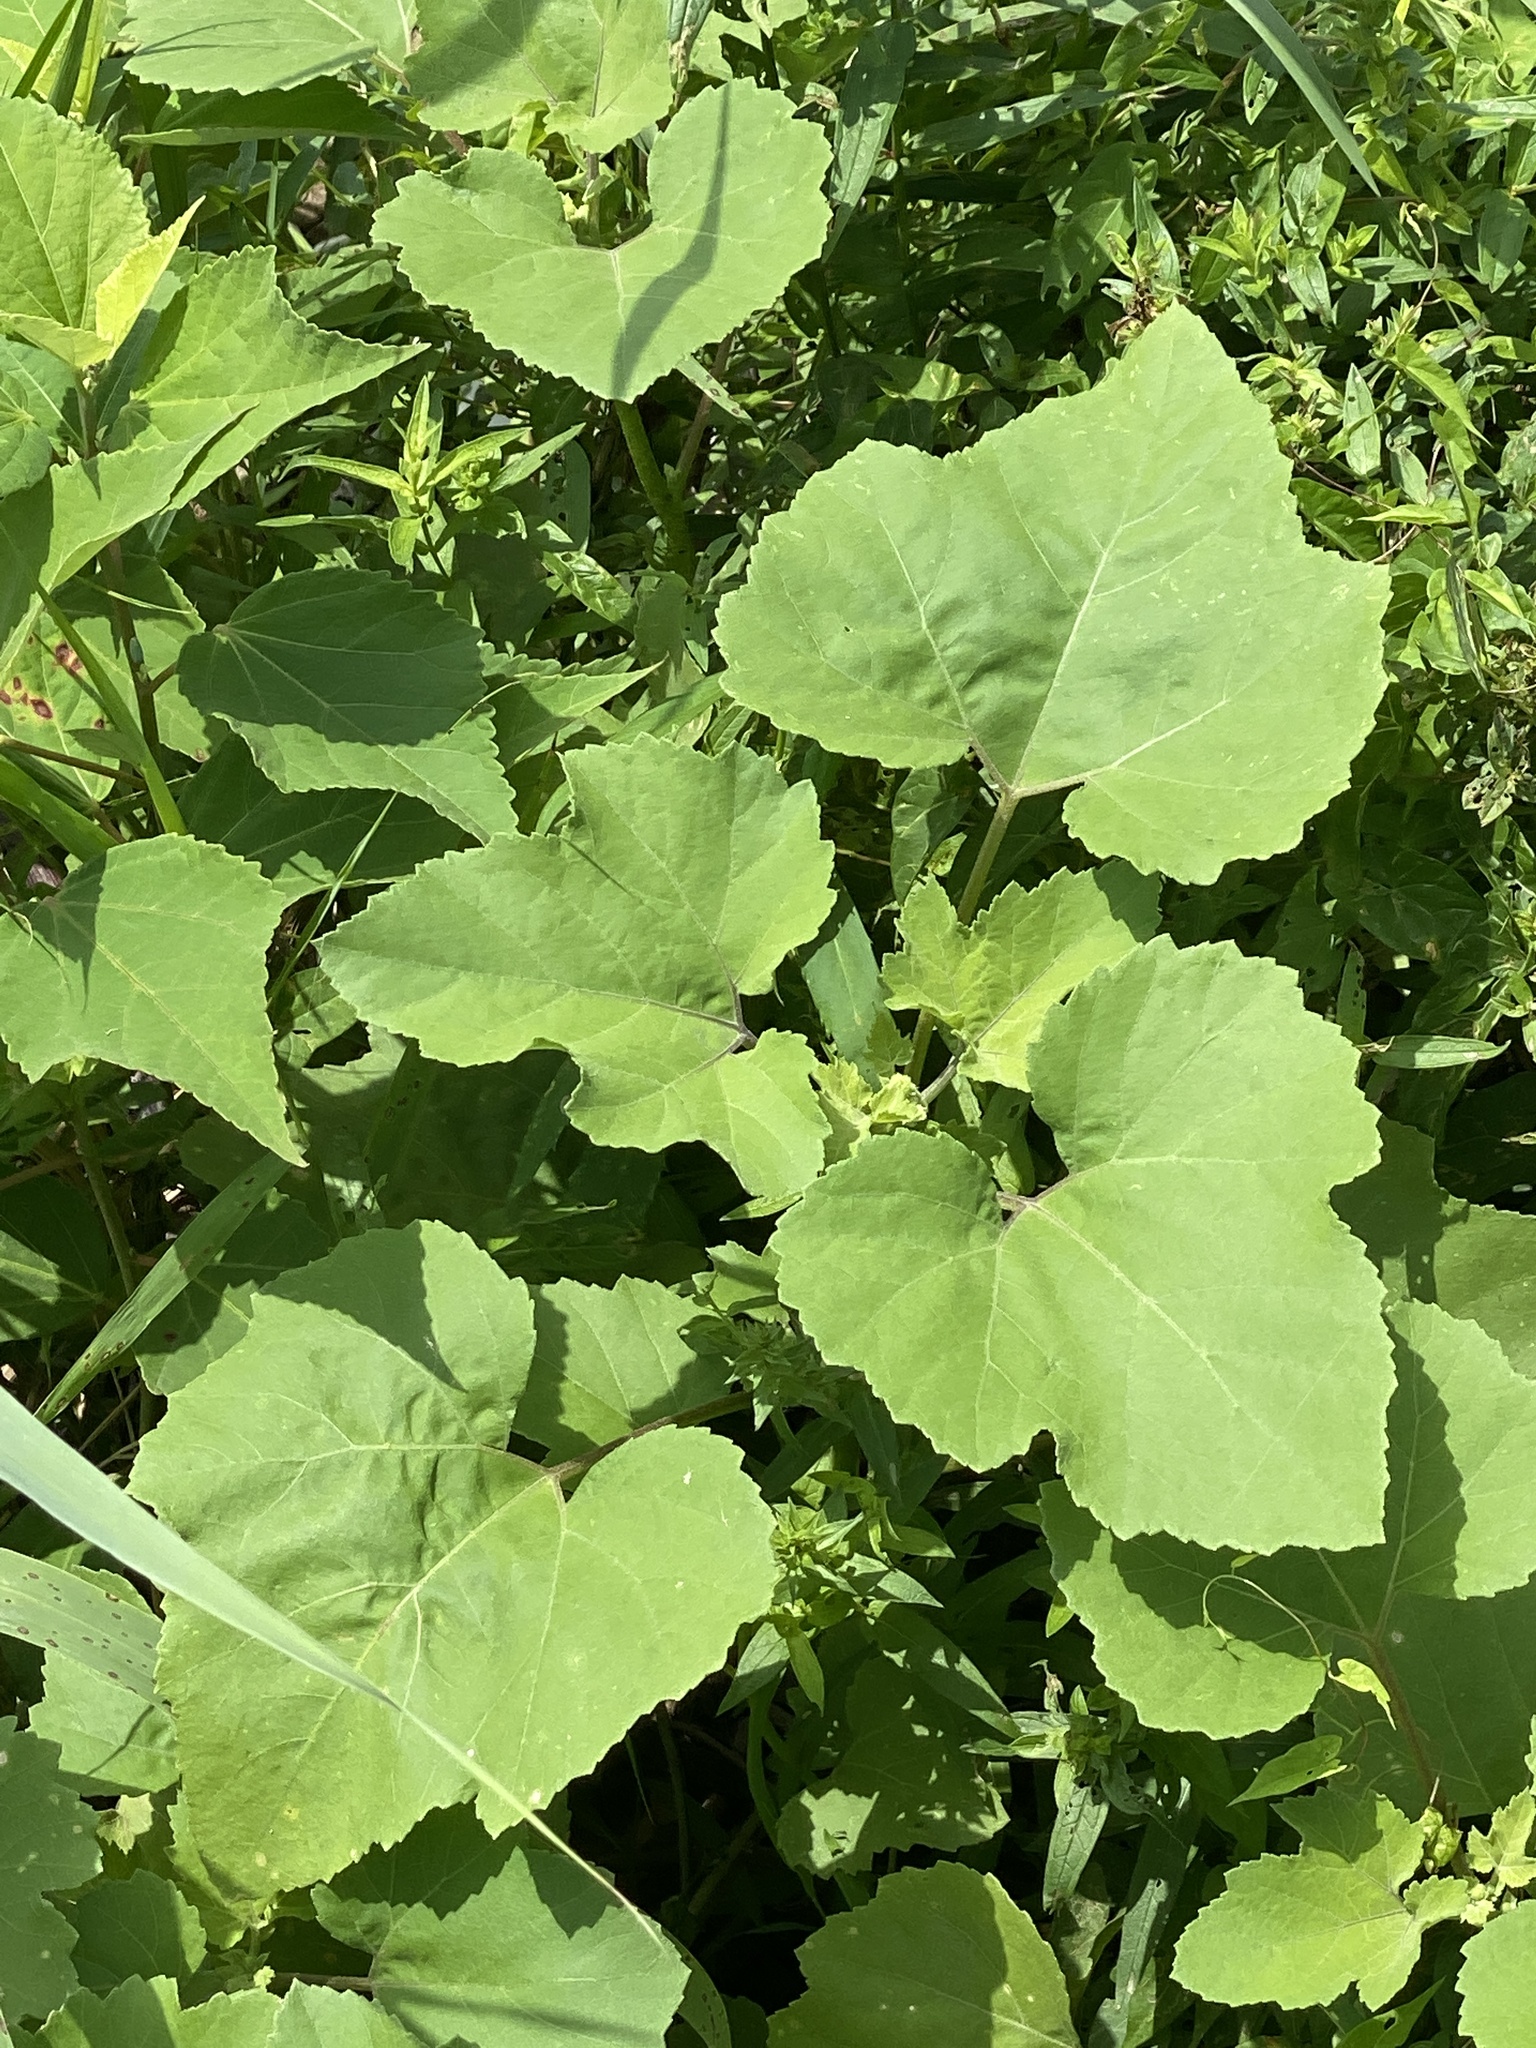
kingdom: Plantae
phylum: Tracheophyta
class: Magnoliopsida
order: Asterales
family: Asteraceae
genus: Xanthium
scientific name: Xanthium strumarium
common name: Rough cocklebur
